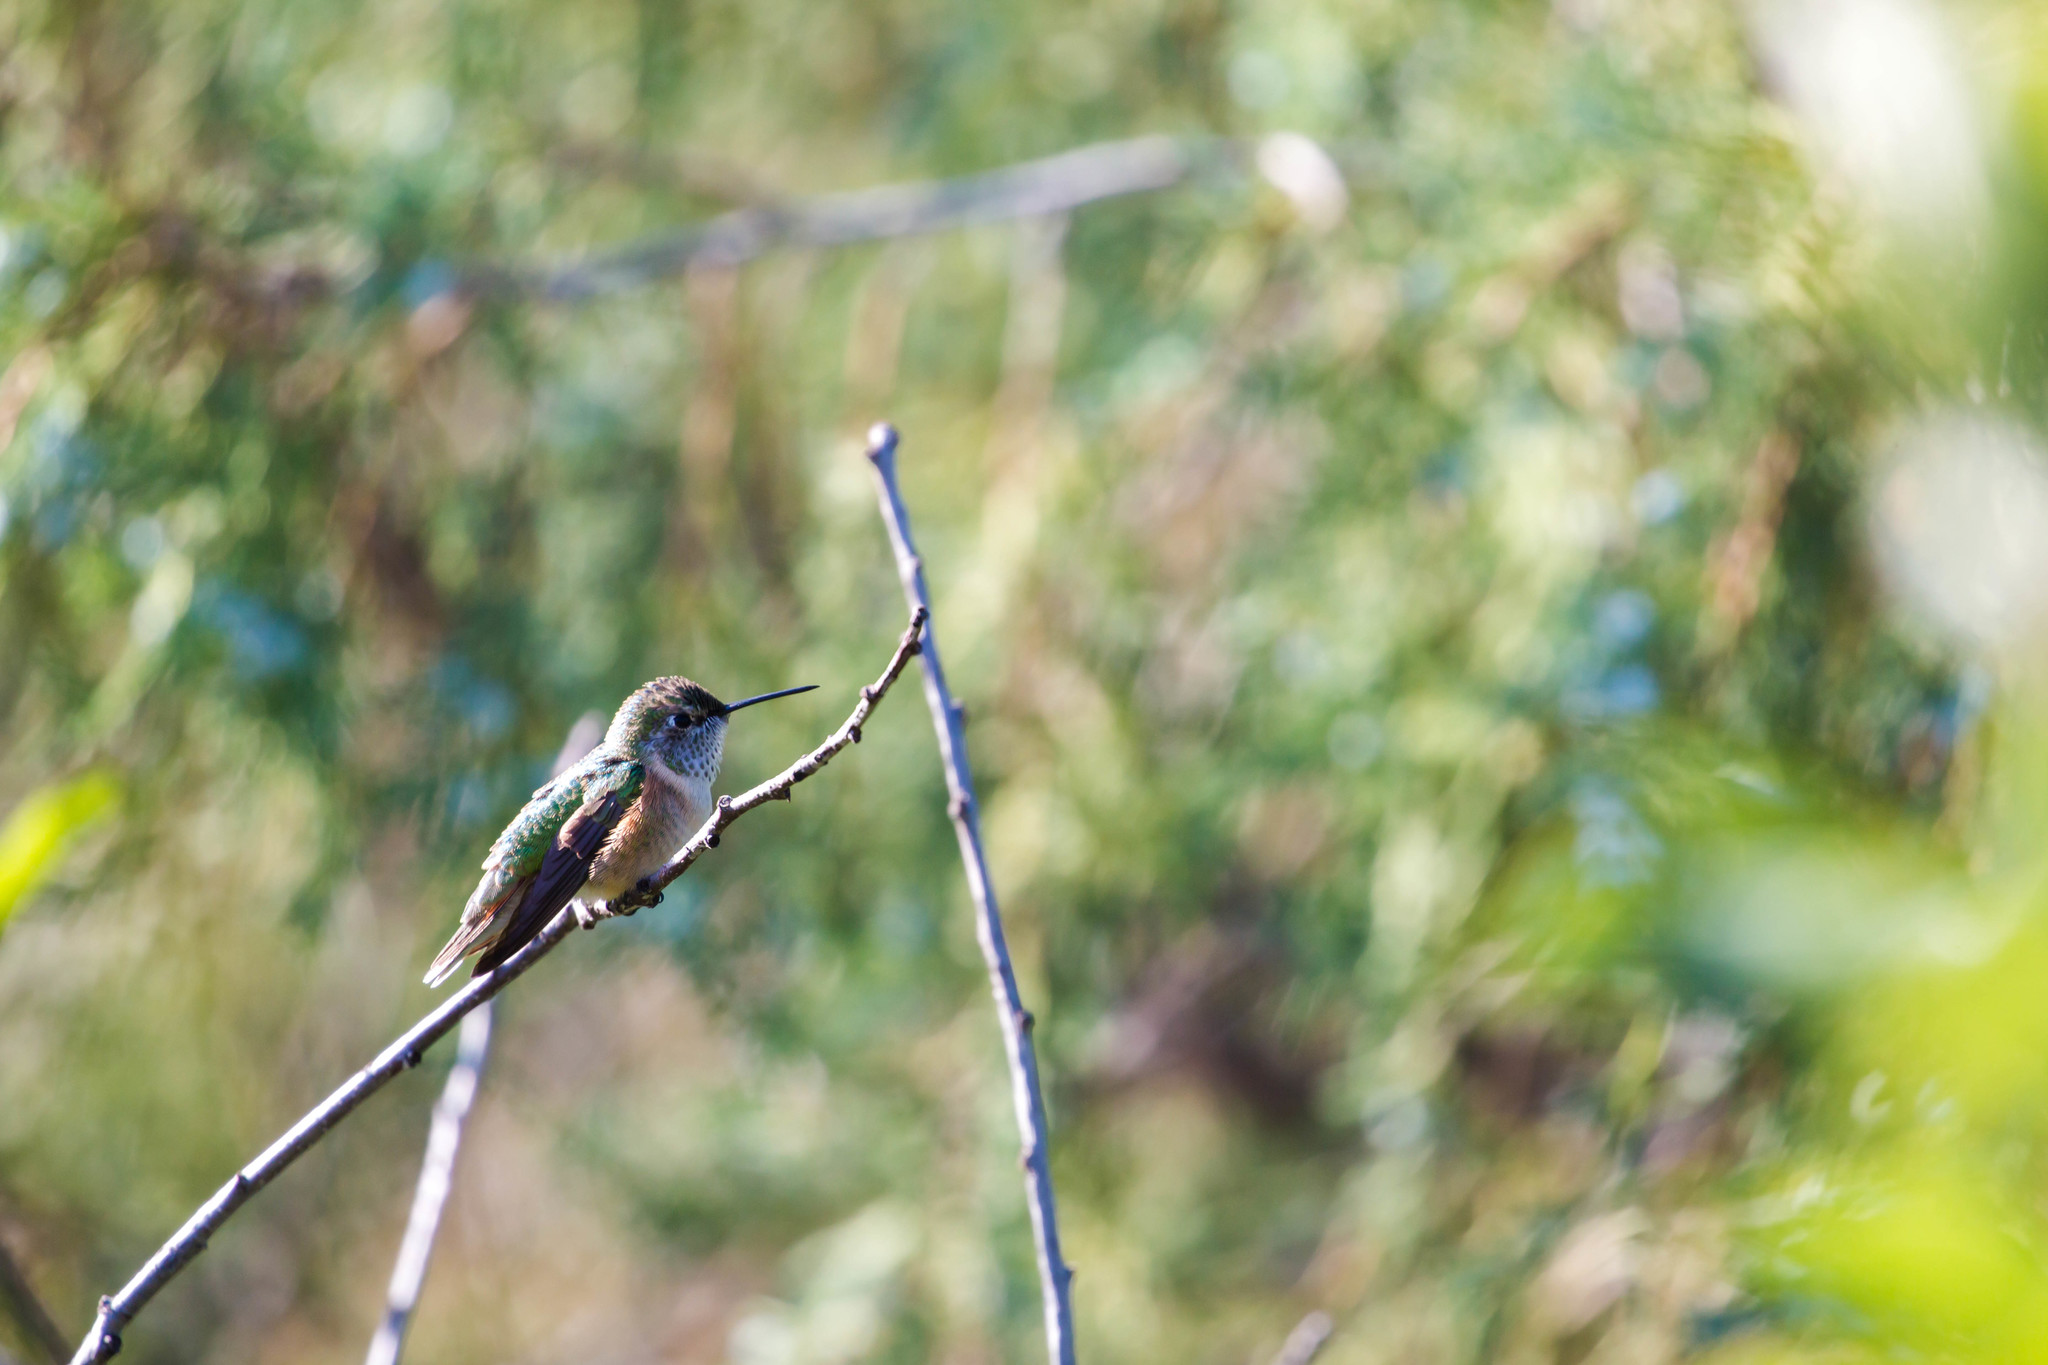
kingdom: Animalia
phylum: Chordata
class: Aves
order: Apodiformes
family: Trochilidae
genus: Selasphorus
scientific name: Selasphorus platycercus
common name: Broad-tailed hummingbird
